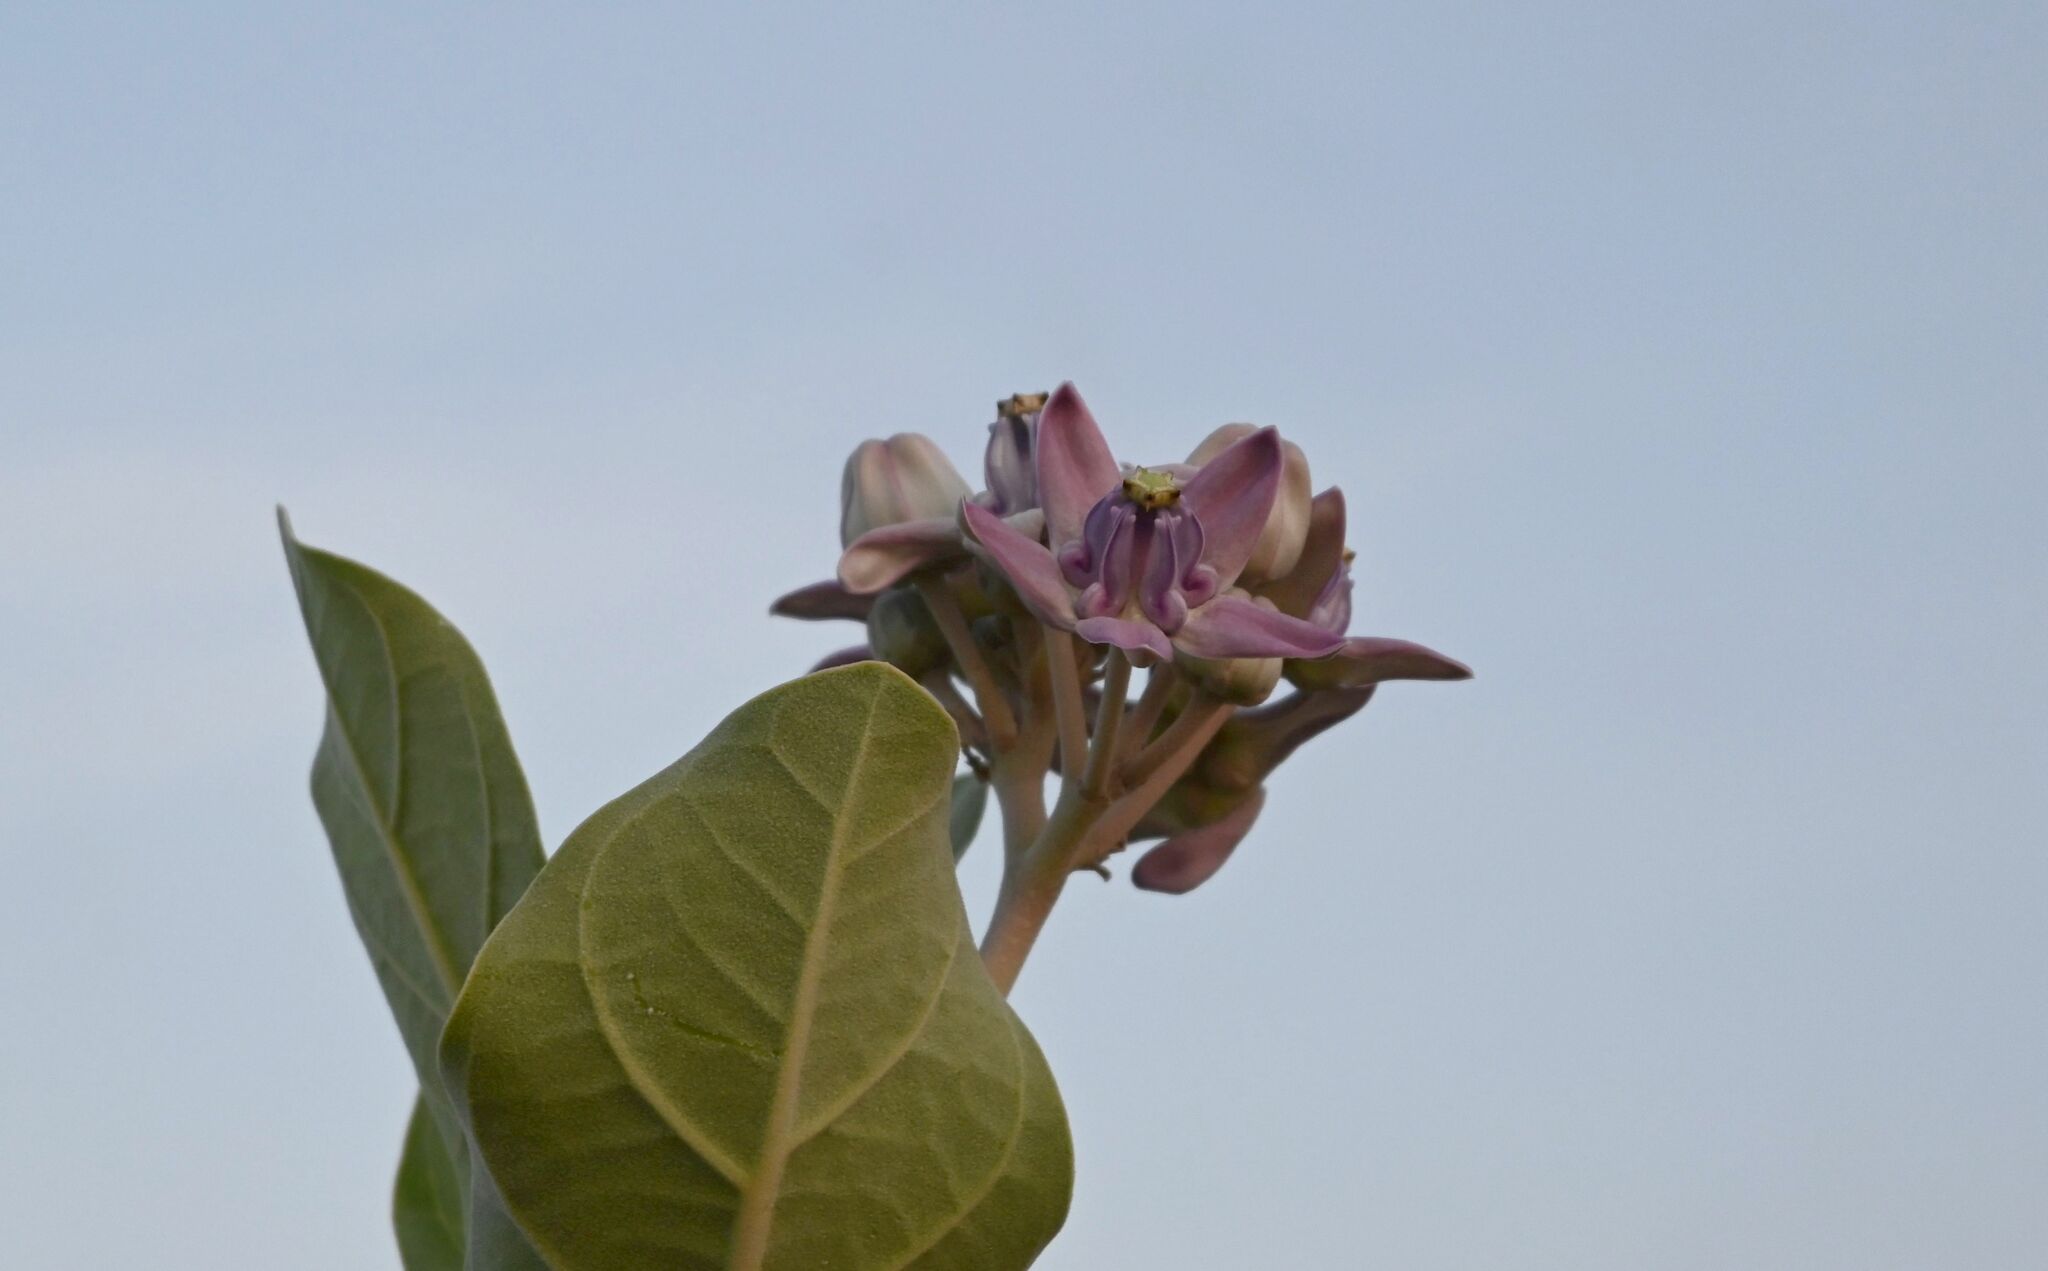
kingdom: Plantae
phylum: Tracheophyta
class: Magnoliopsida
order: Gentianales
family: Apocynaceae
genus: Calotropis
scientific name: Calotropis gigantea
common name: Crown flower
